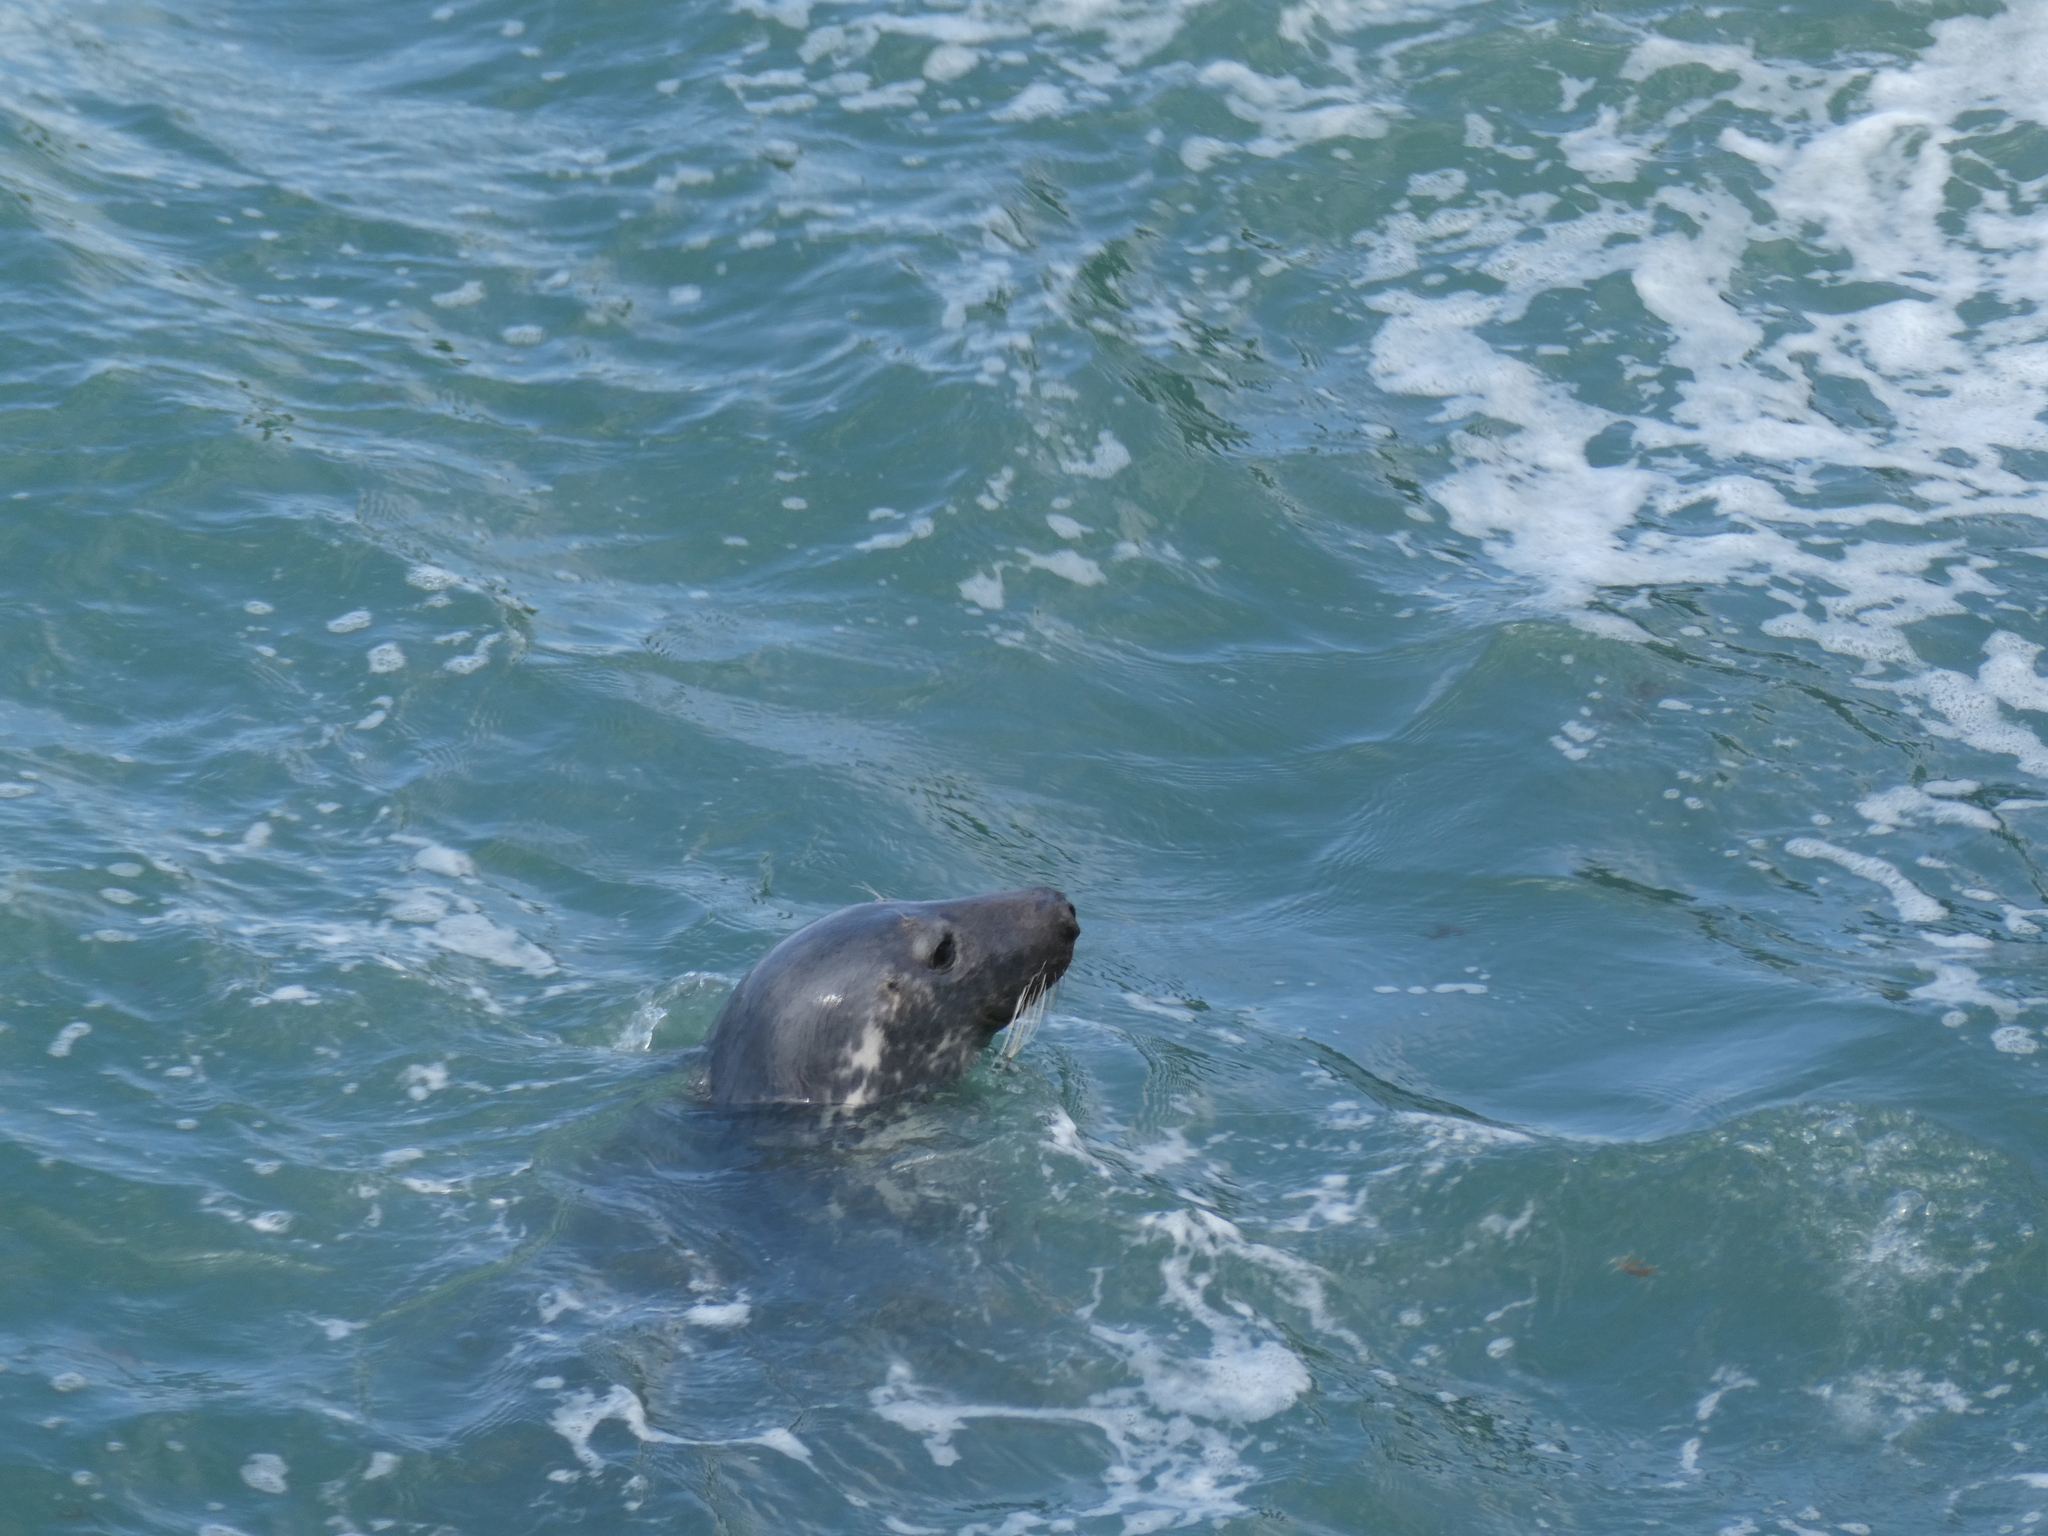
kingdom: Animalia
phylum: Chordata
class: Mammalia
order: Carnivora
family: Phocidae
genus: Halichoerus
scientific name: Halichoerus grypus
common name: Grey seal
